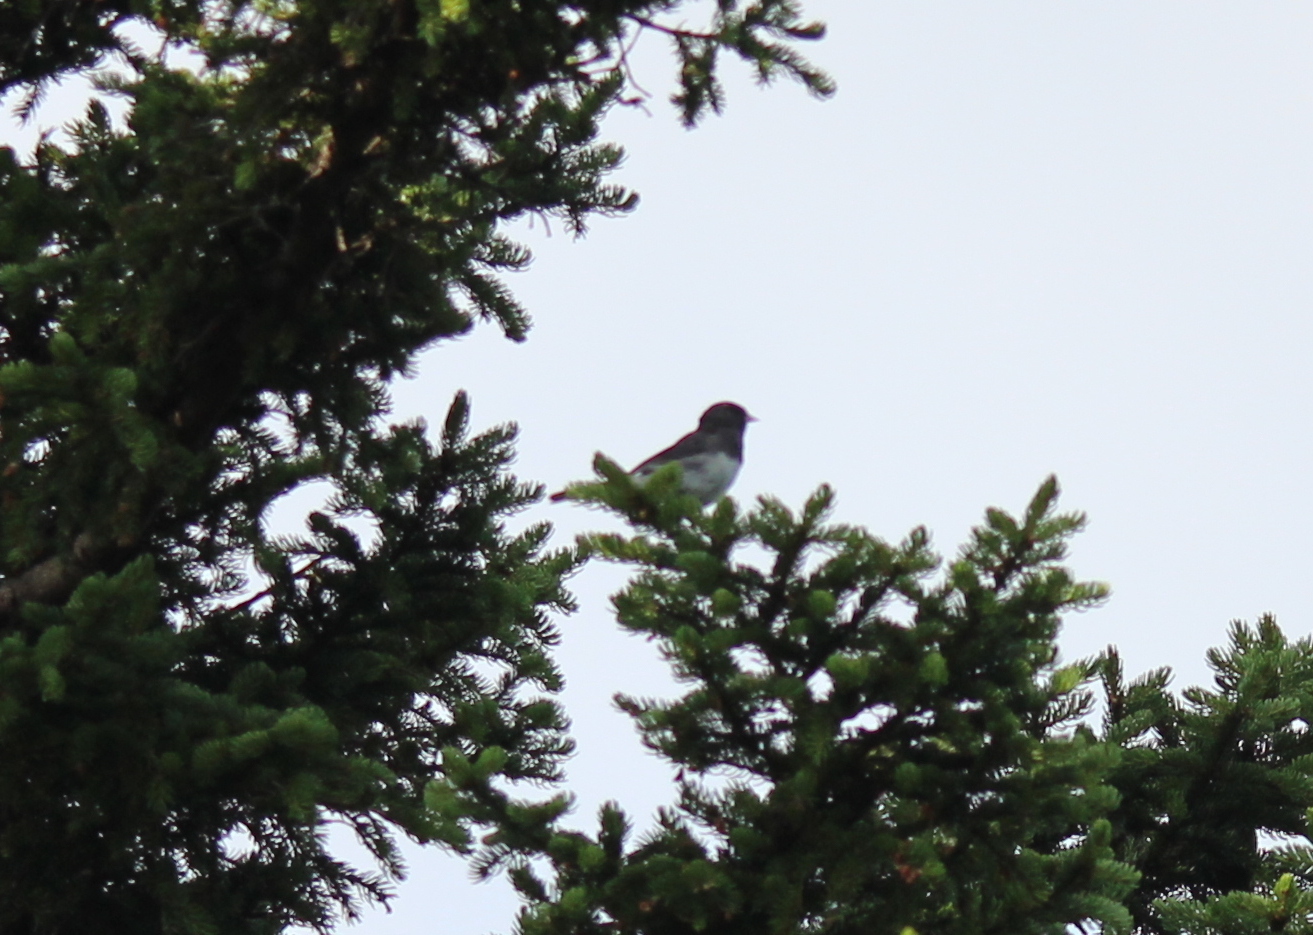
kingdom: Animalia
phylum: Chordata
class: Aves
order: Passeriformes
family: Passerellidae
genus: Junco
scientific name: Junco hyemalis
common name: Dark-eyed junco
